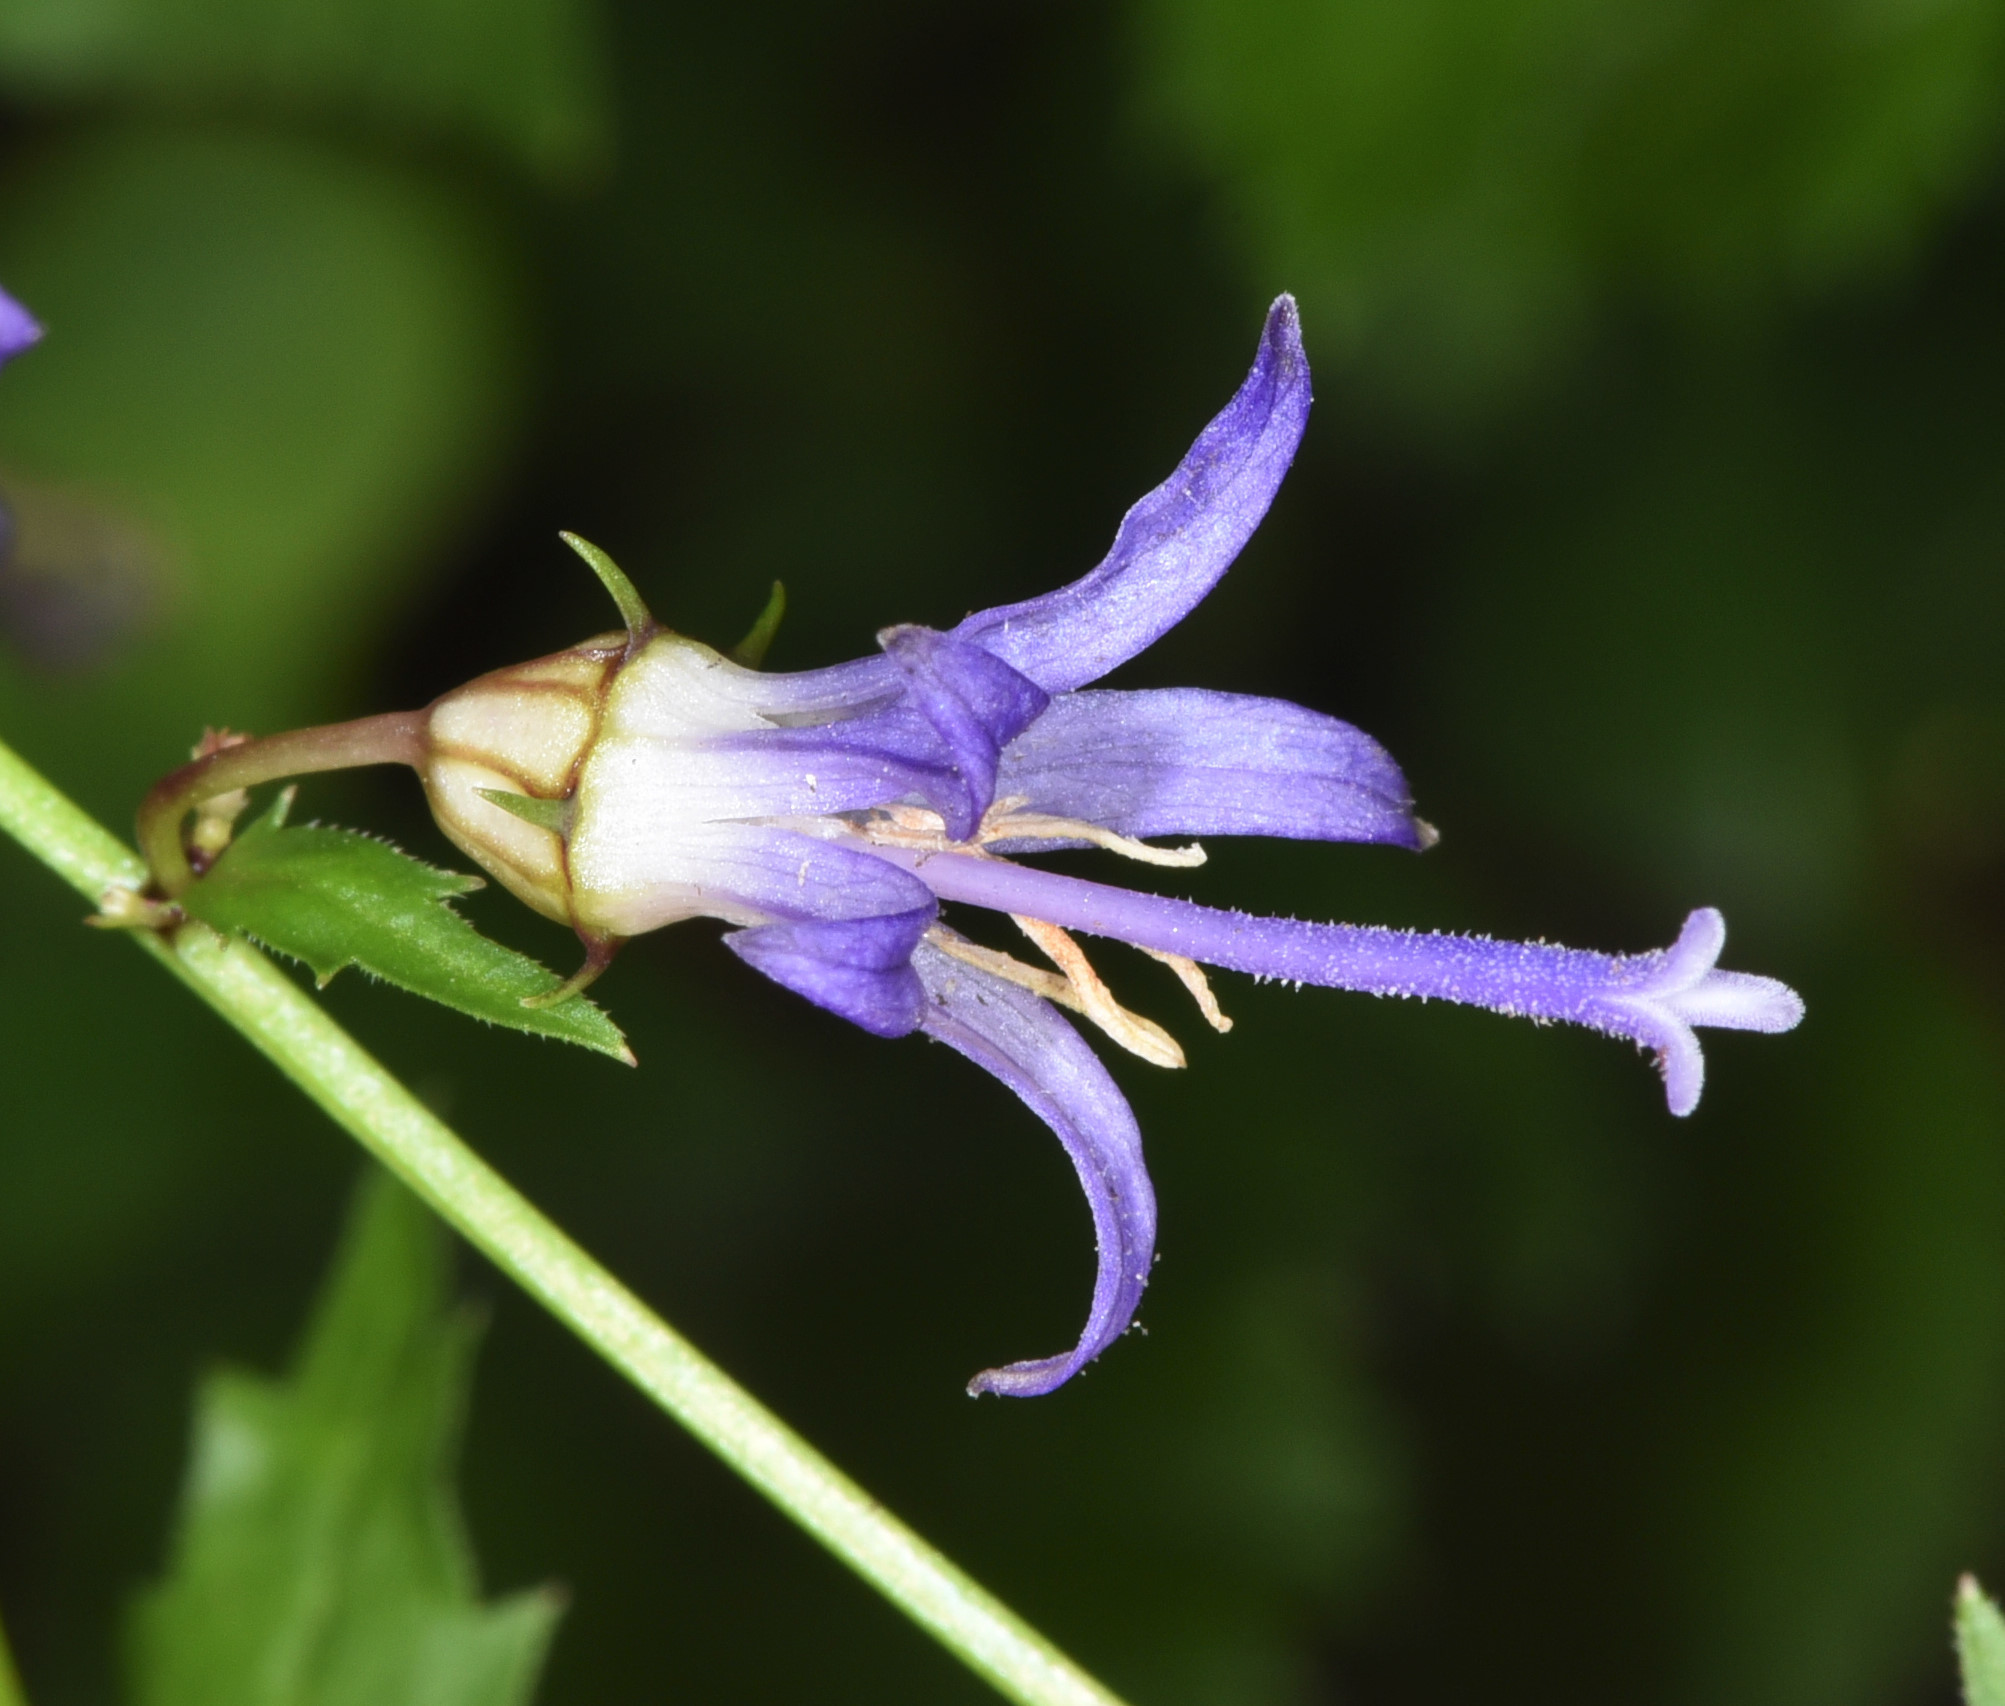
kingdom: Plantae
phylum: Tracheophyta
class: Magnoliopsida
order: Asterales
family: Campanulaceae
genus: Smithiastrum
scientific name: Smithiastrum prenanthoides
